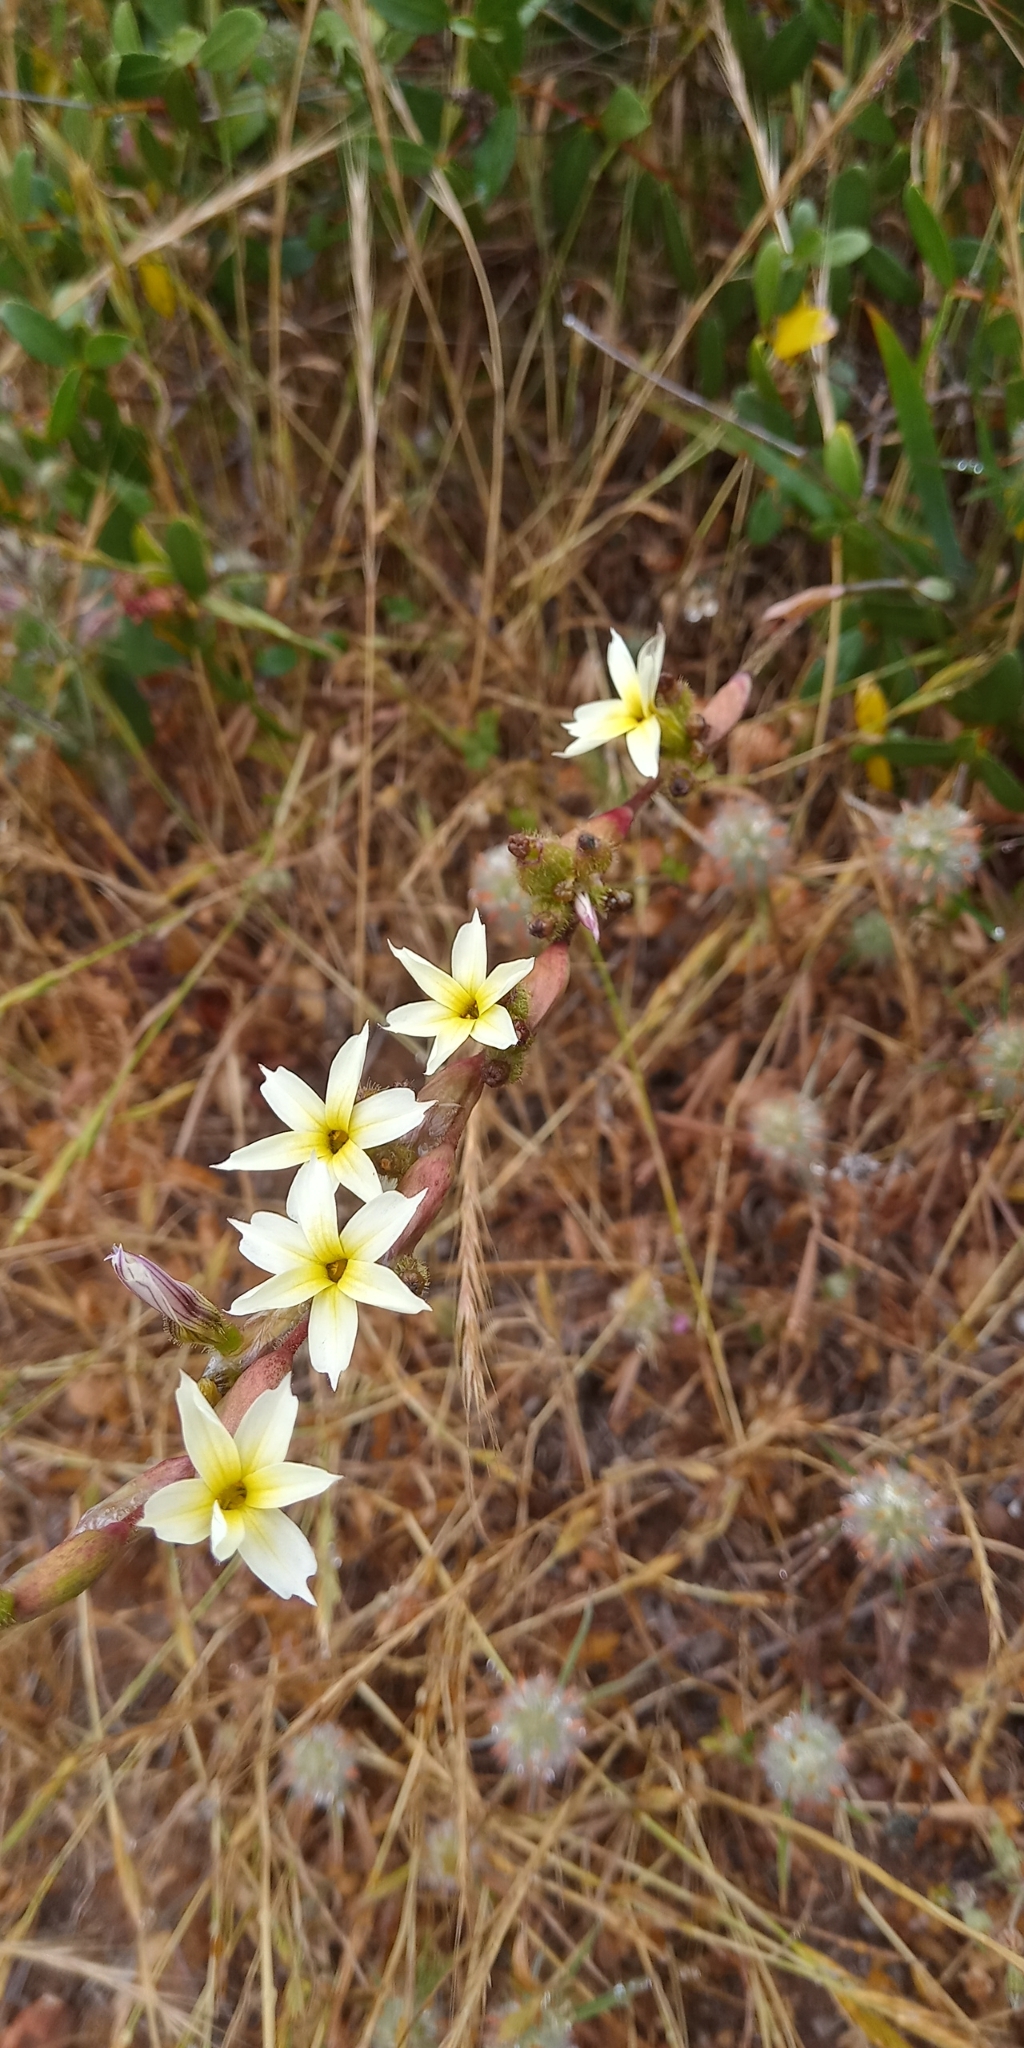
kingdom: Plantae
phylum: Tracheophyta
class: Liliopsida
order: Asparagales
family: Iridaceae
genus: Sisyrinchium
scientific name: Sisyrinchium striatum
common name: Pale yellow-eyed-grass
